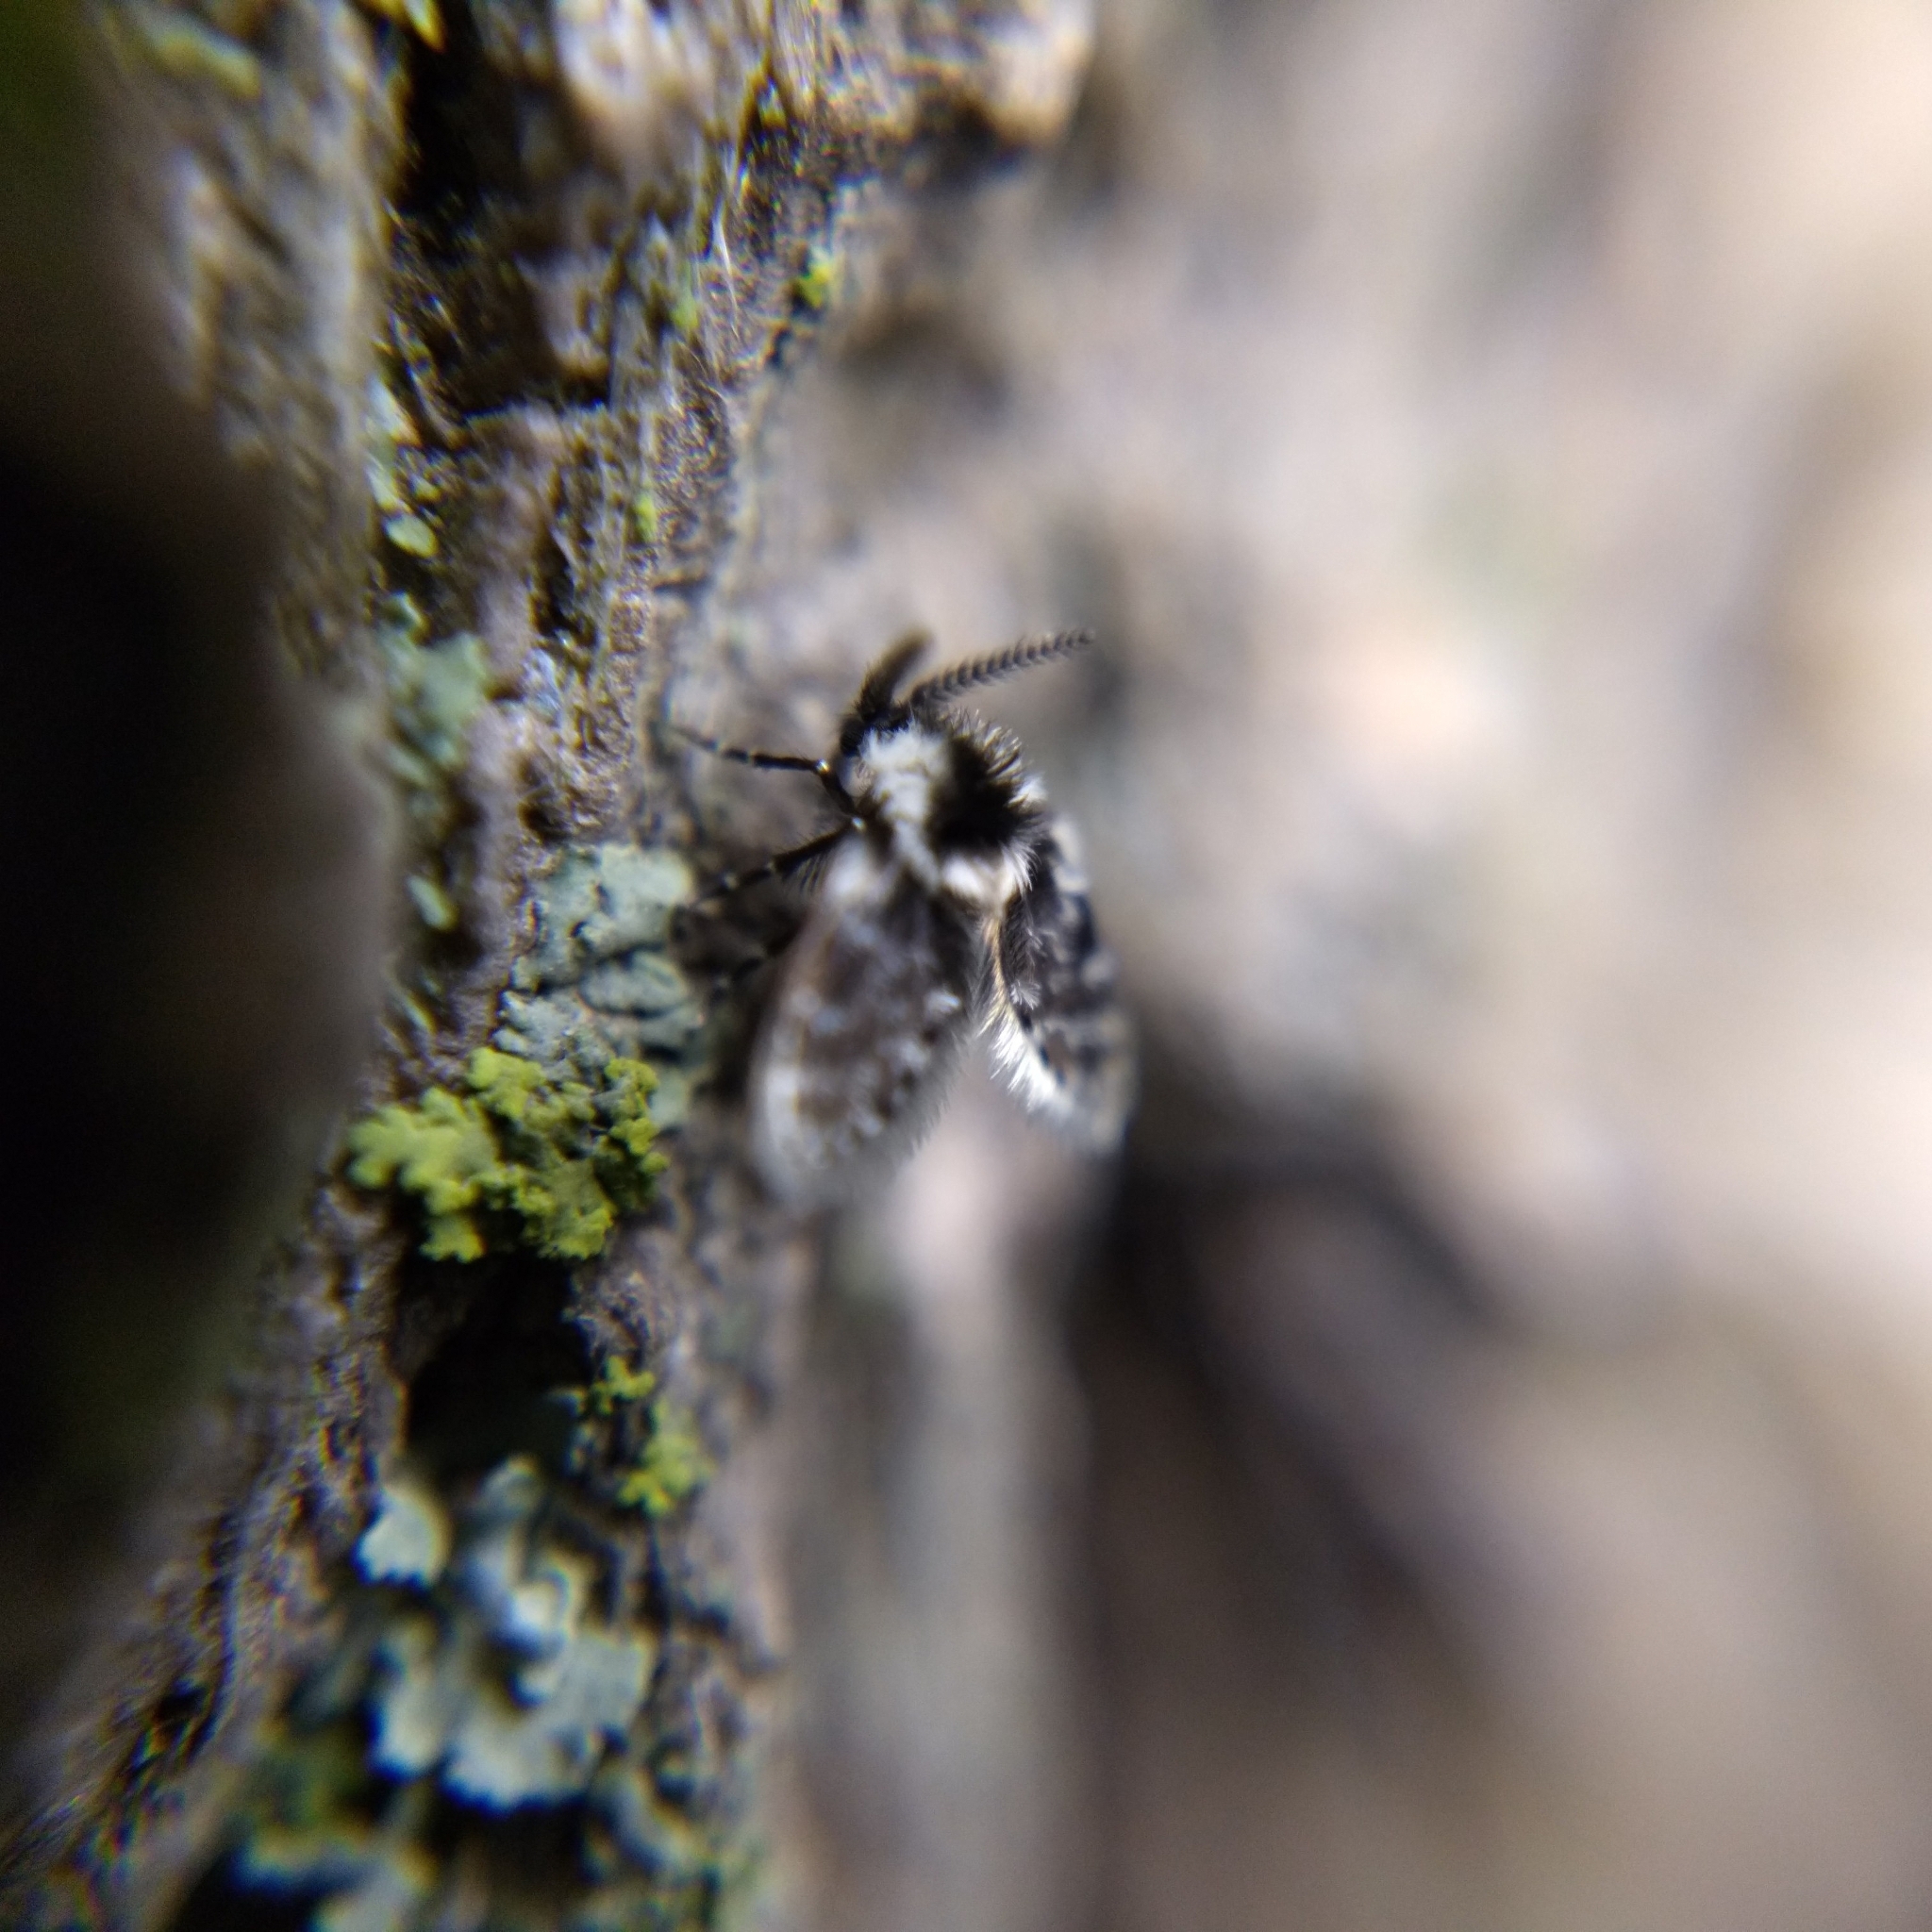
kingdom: Animalia
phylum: Arthropoda
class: Insecta
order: Diptera
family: Psychodidae
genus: Lepiseodina
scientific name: Lepiseodina
